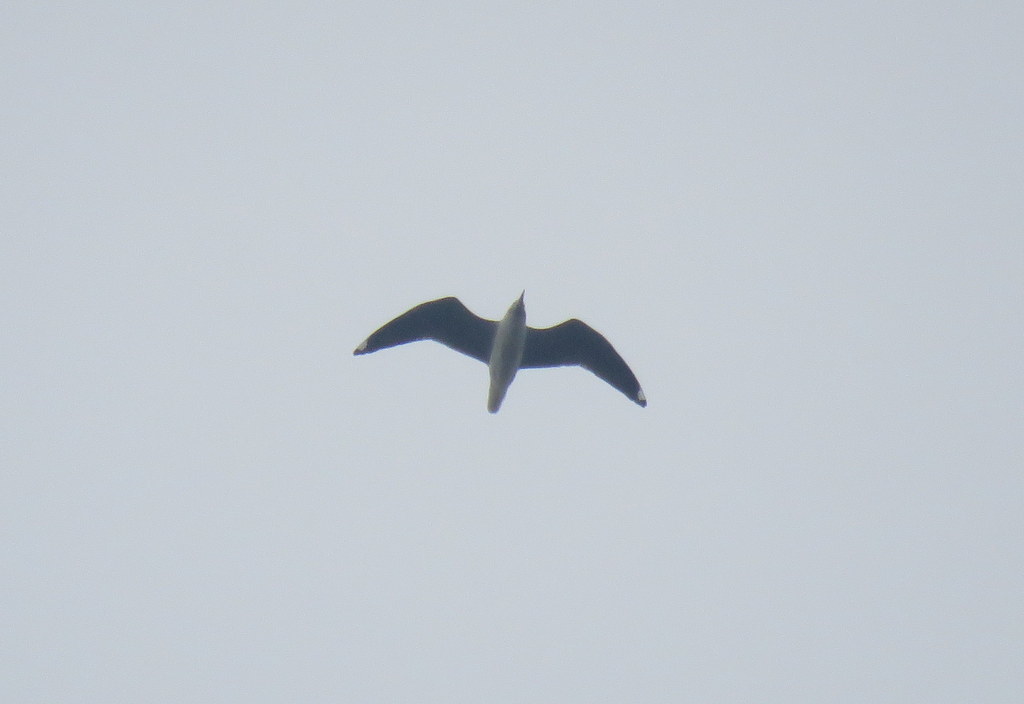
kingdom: Animalia
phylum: Chordata
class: Aves
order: Charadriiformes
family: Laridae
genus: Chroicocephalus
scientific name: Chroicocephalus cirrocephalus
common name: Grey-headed gull
